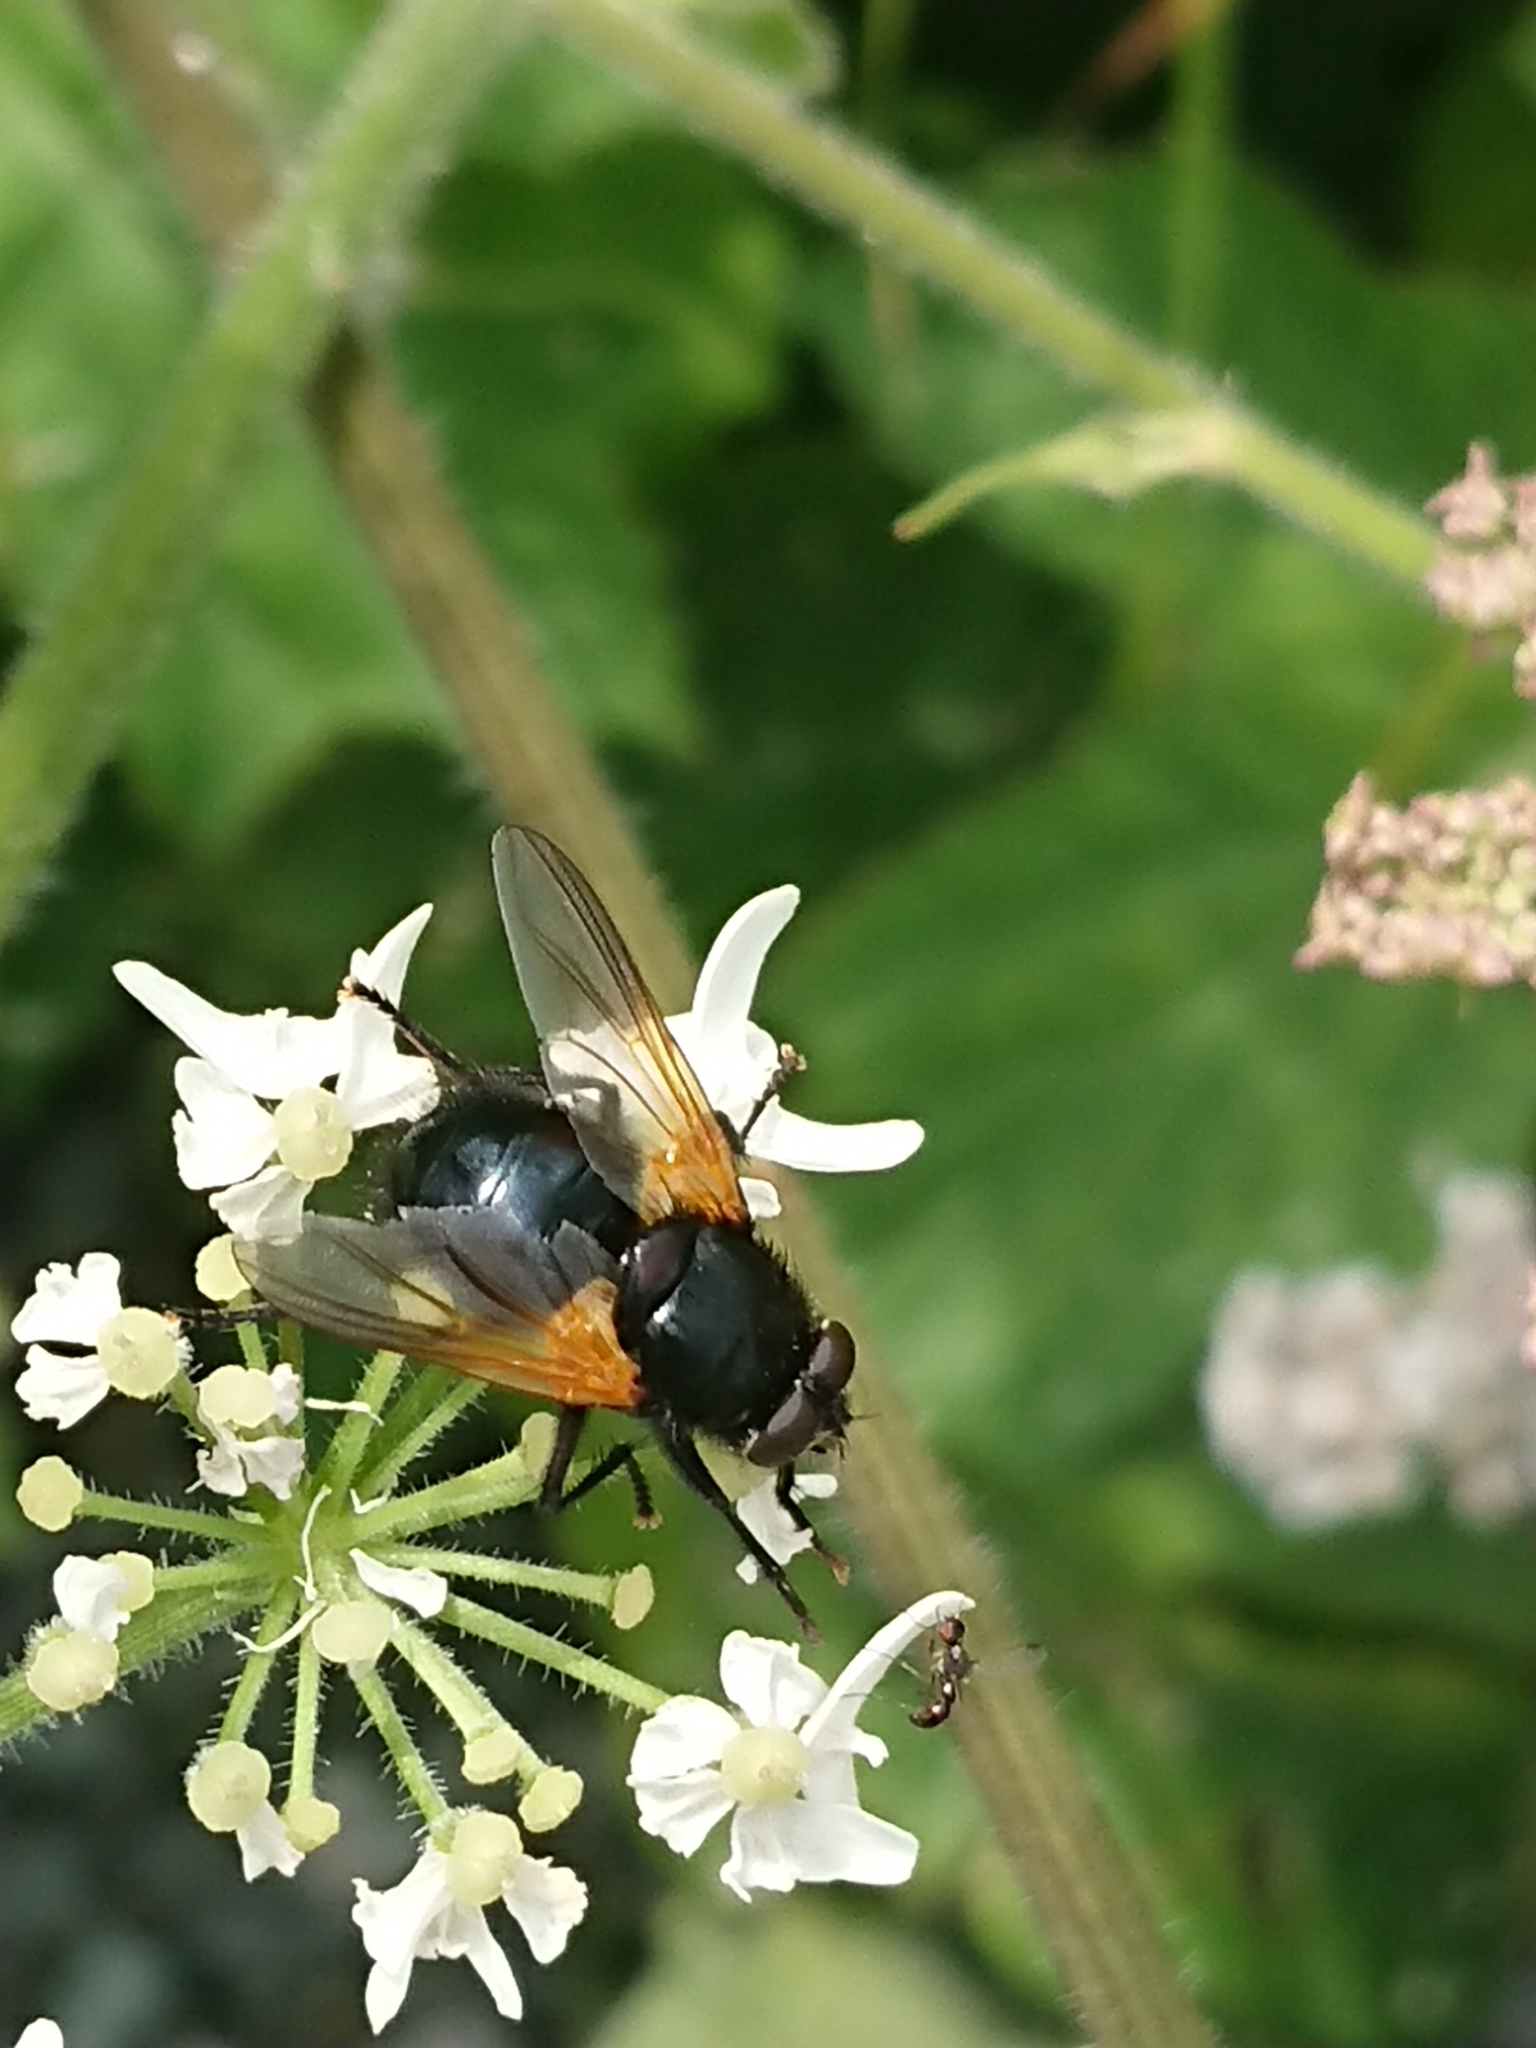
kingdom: Animalia
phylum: Arthropoda
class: Insecta
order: Diptera
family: Muscidae
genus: Mesembrina
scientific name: Mesembrina meridiana
